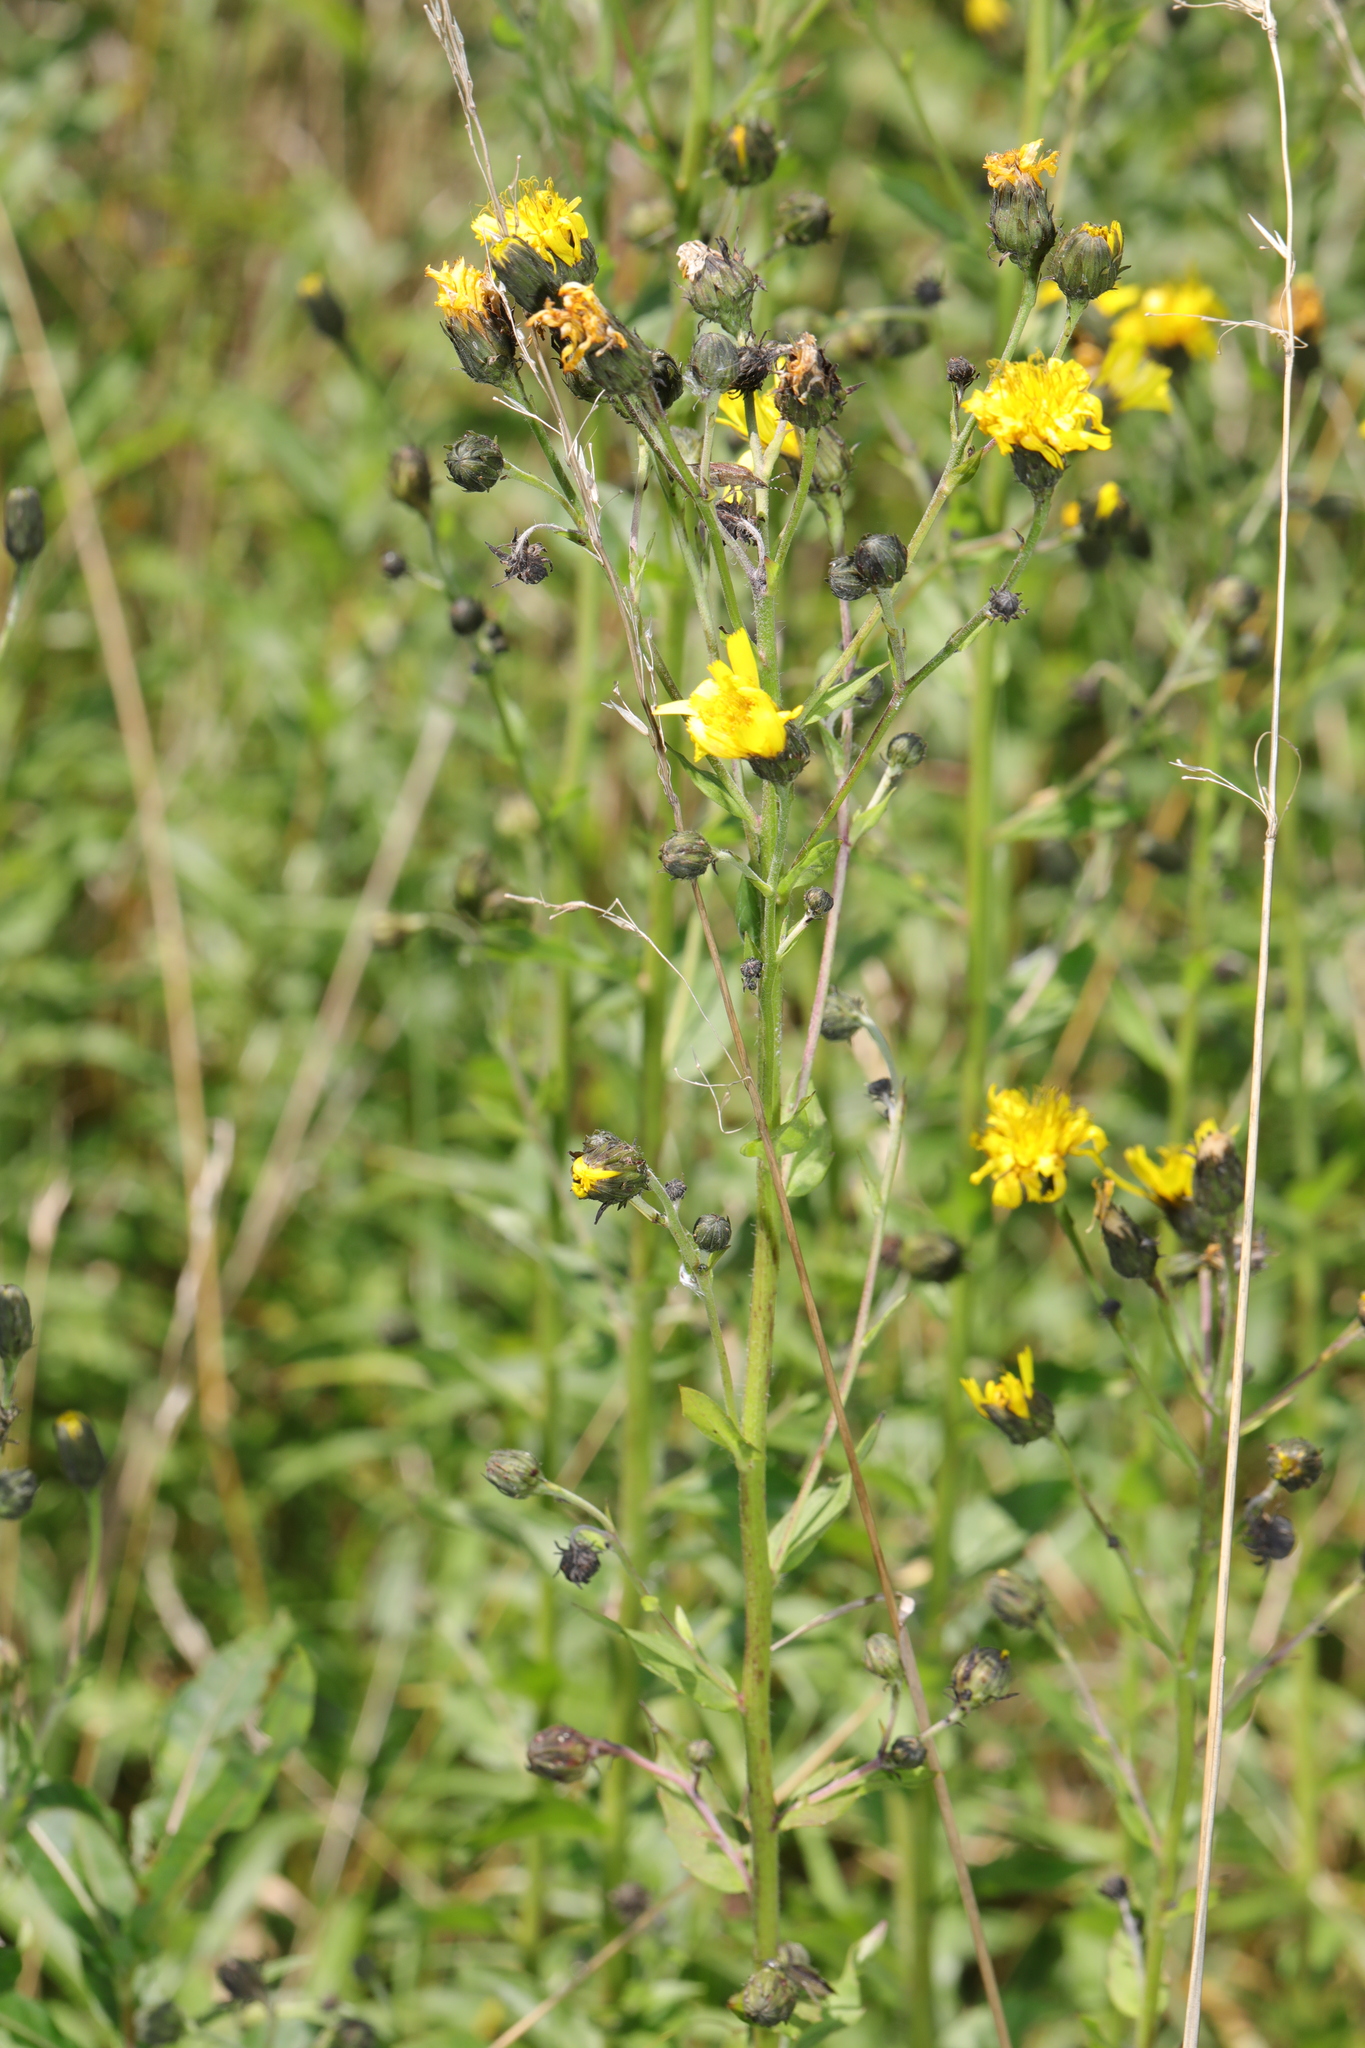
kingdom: Plantae
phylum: Tracheophyta
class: Magnoliopsida
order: Asterales
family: Asteraceae
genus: Hieracium
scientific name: Hieracium sabaudum
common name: New england hawkweed
